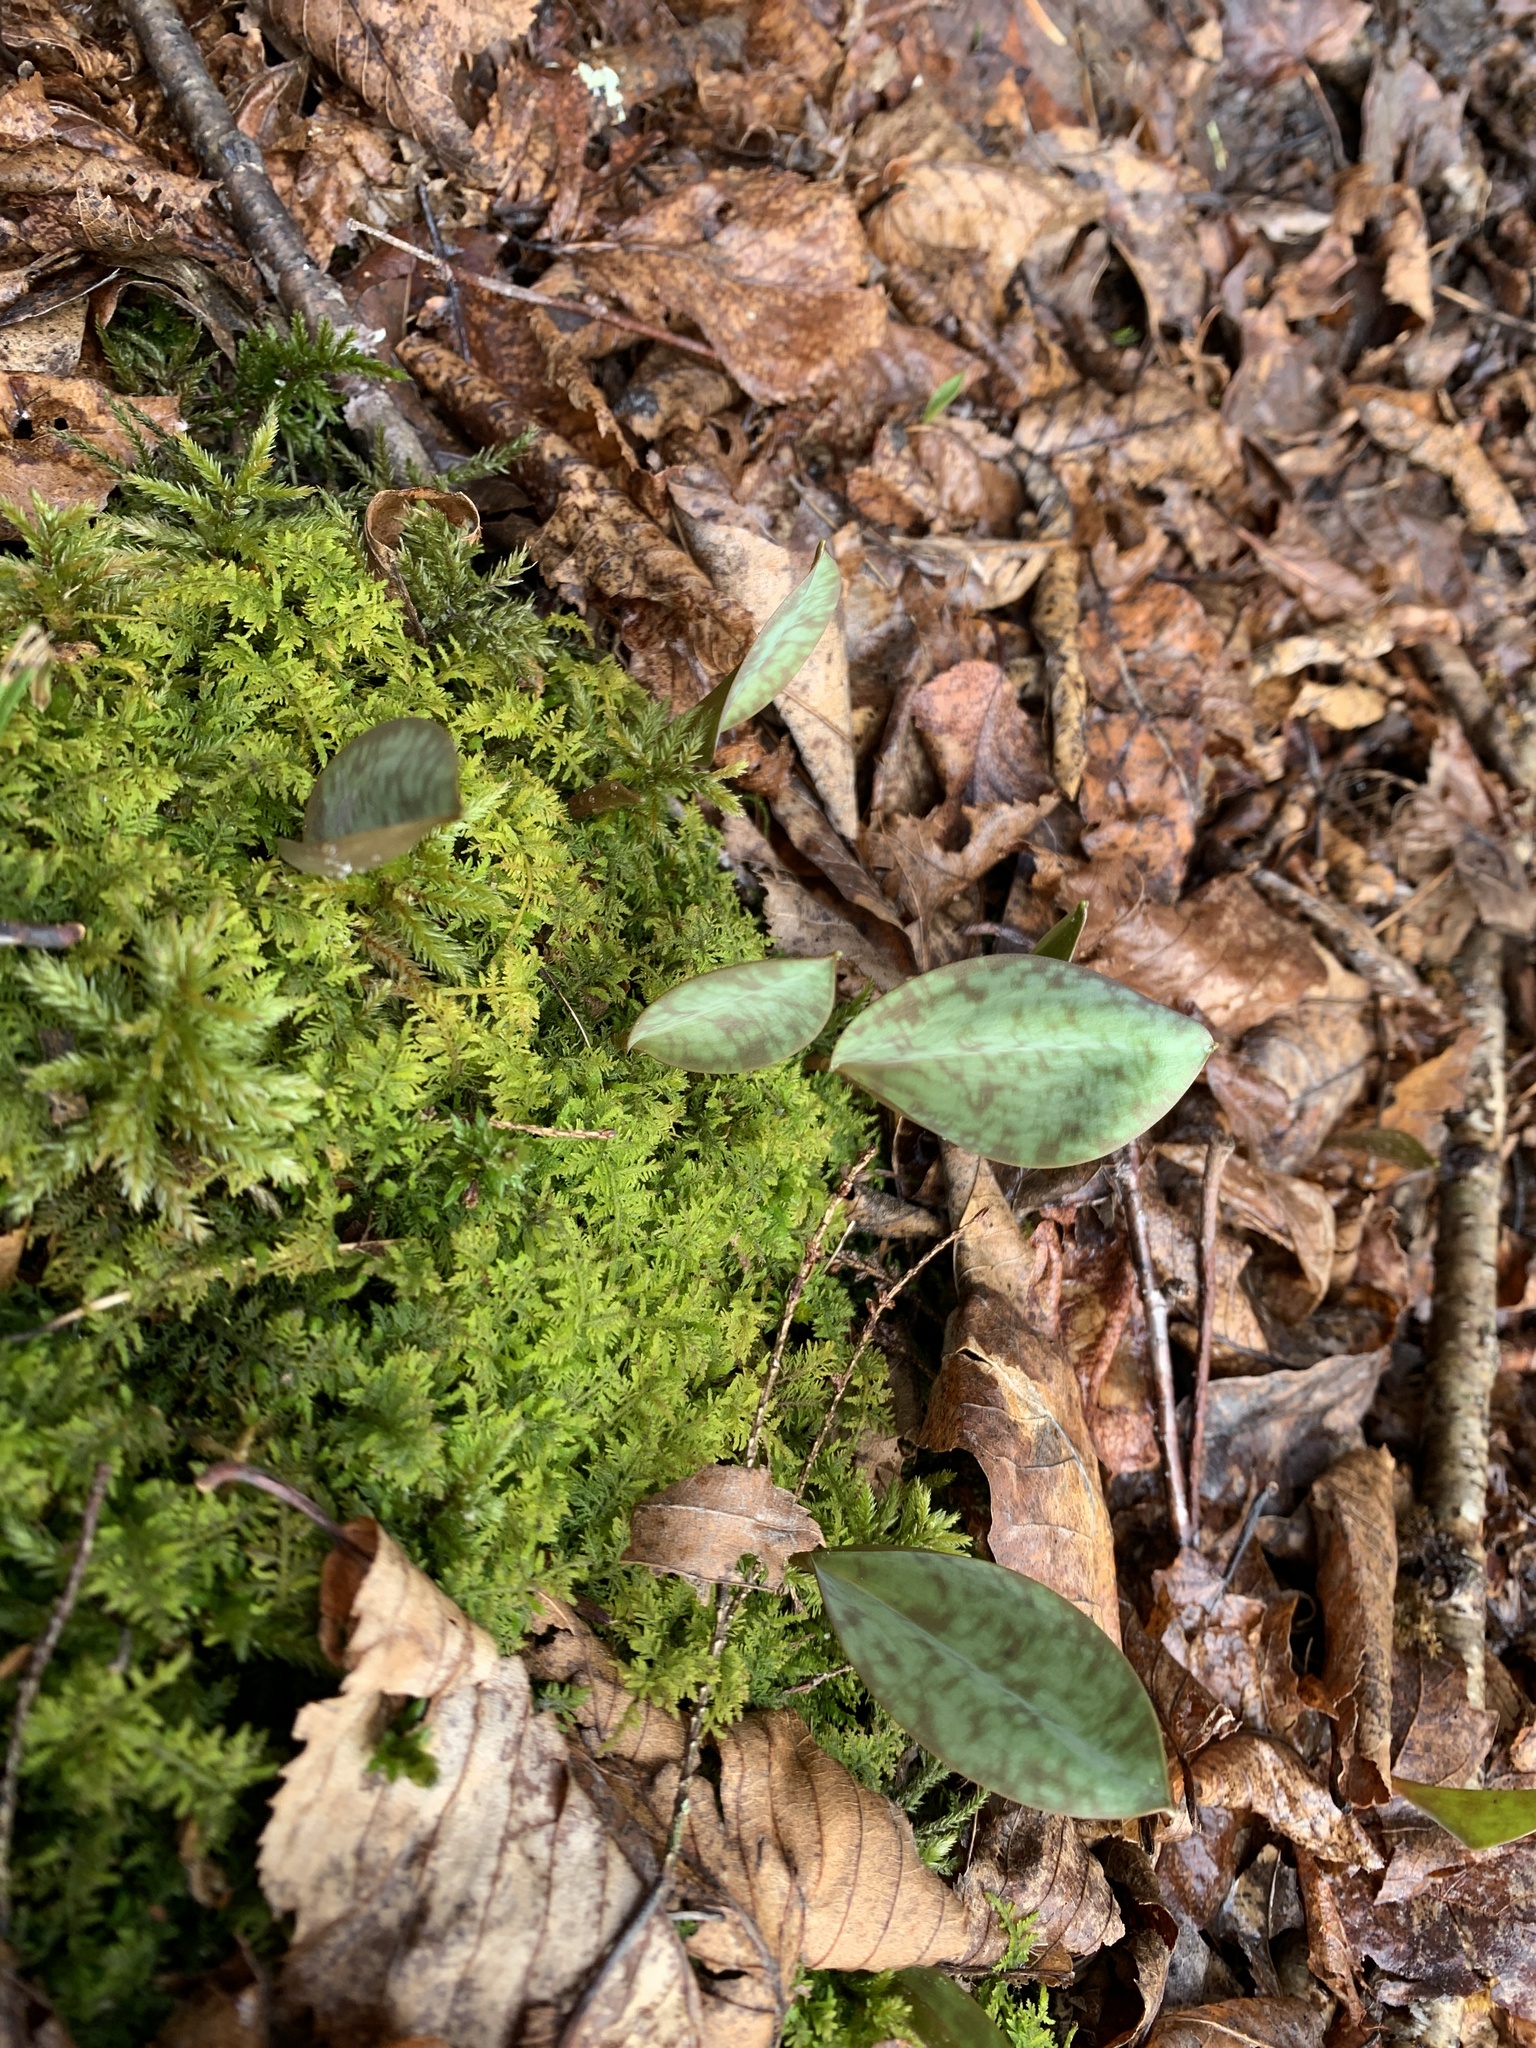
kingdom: Plantae
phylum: Tracheophyta
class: Liliopsida
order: Liliales
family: Liliaceae
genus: Erythronium
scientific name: Erythronium americanum
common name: Yellow adder's-tongue
